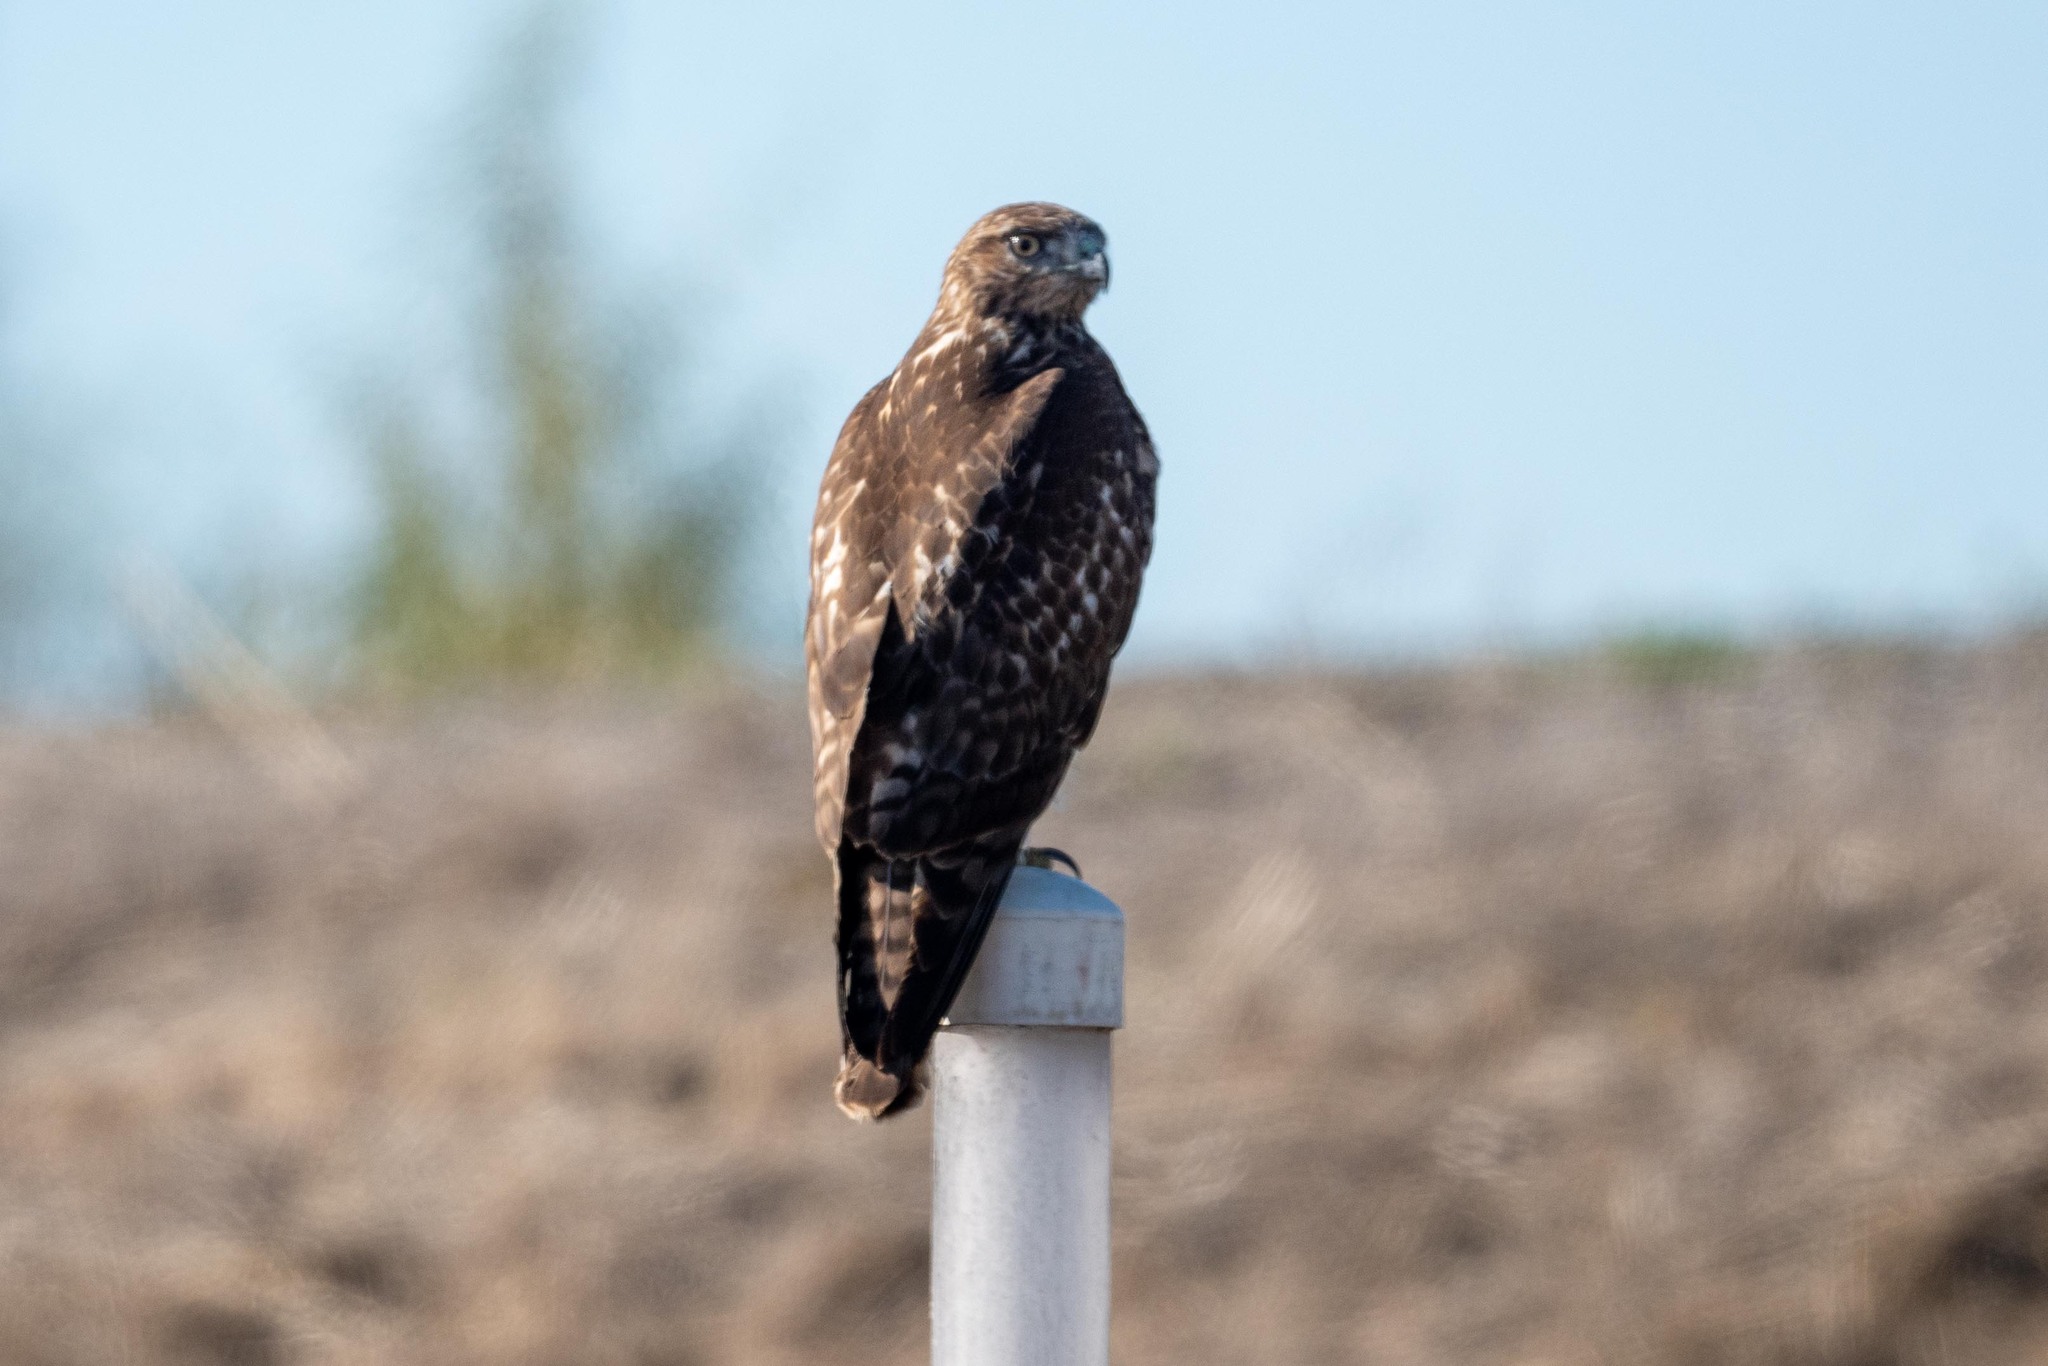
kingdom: Animalia
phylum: Chordata
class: Aves
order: Accipitriformes
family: Accipitridae
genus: Buteo
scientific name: Buteo jamaicensis
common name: Red-tailed hawk
